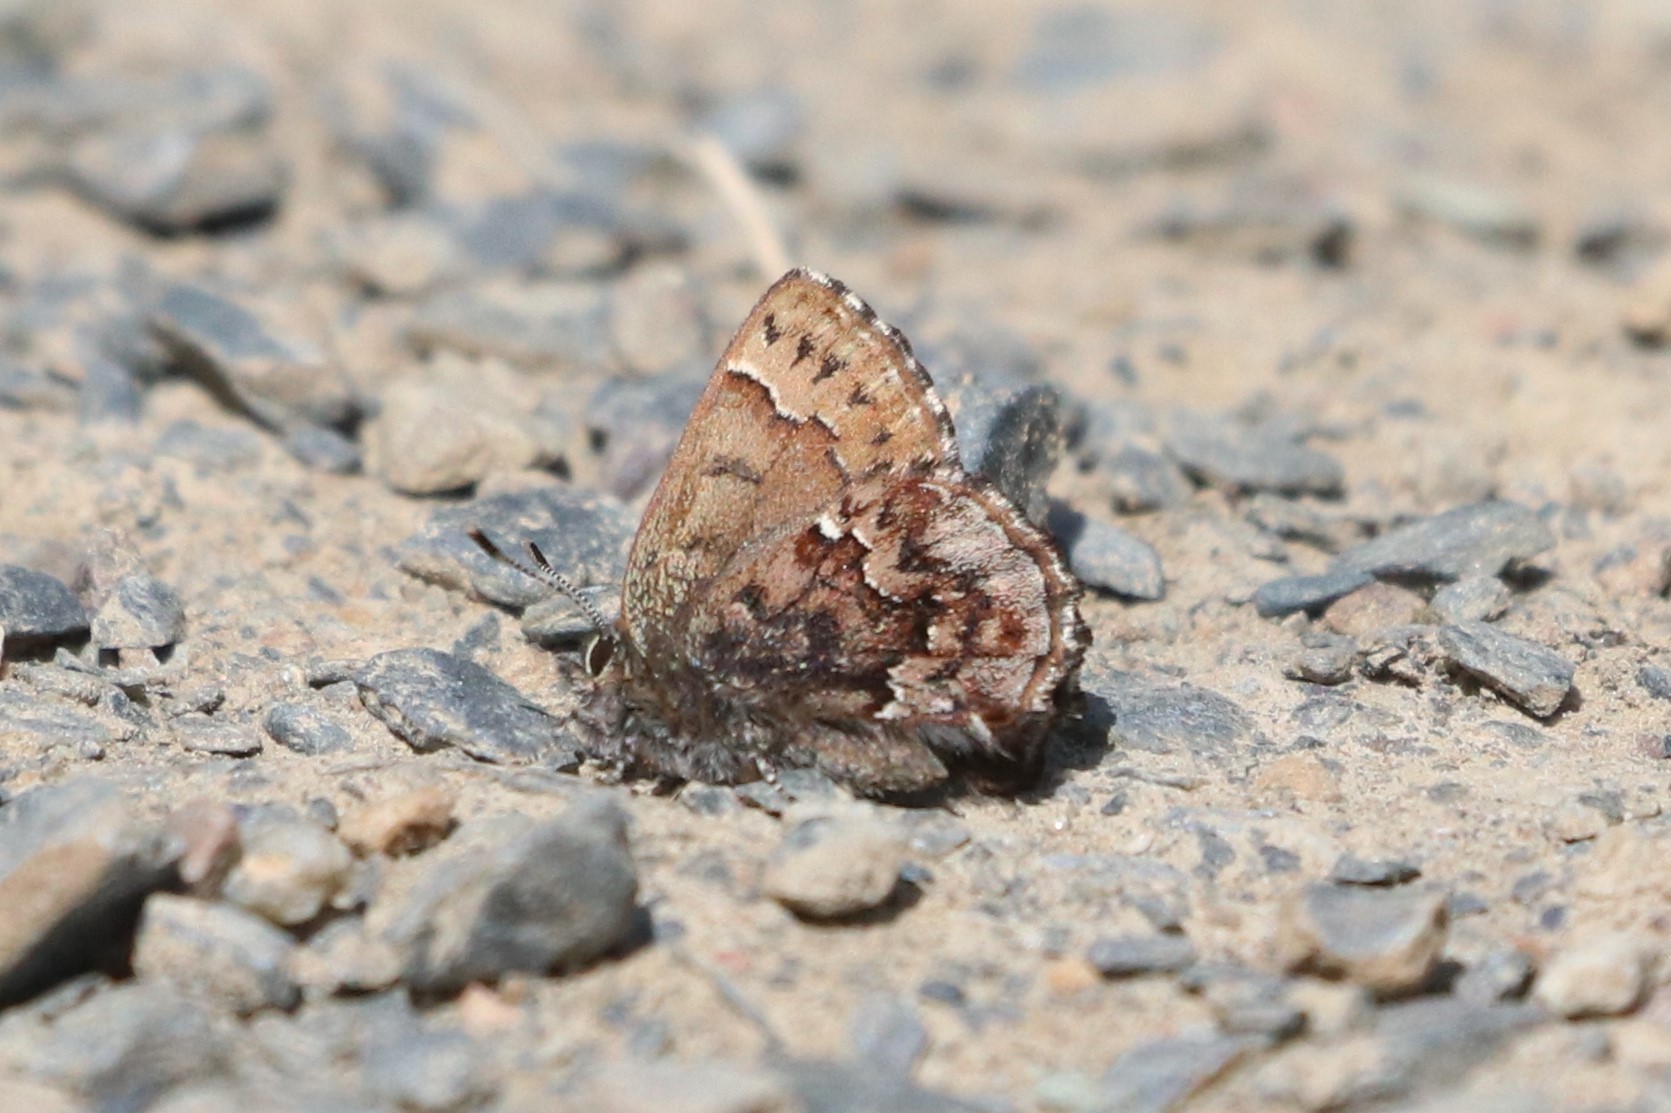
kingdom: Animalia
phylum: Arthropoda
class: Insecta
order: Lepidoptera
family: Lycaenidae
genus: Incisalia
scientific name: Incisalia lanoraieensis
